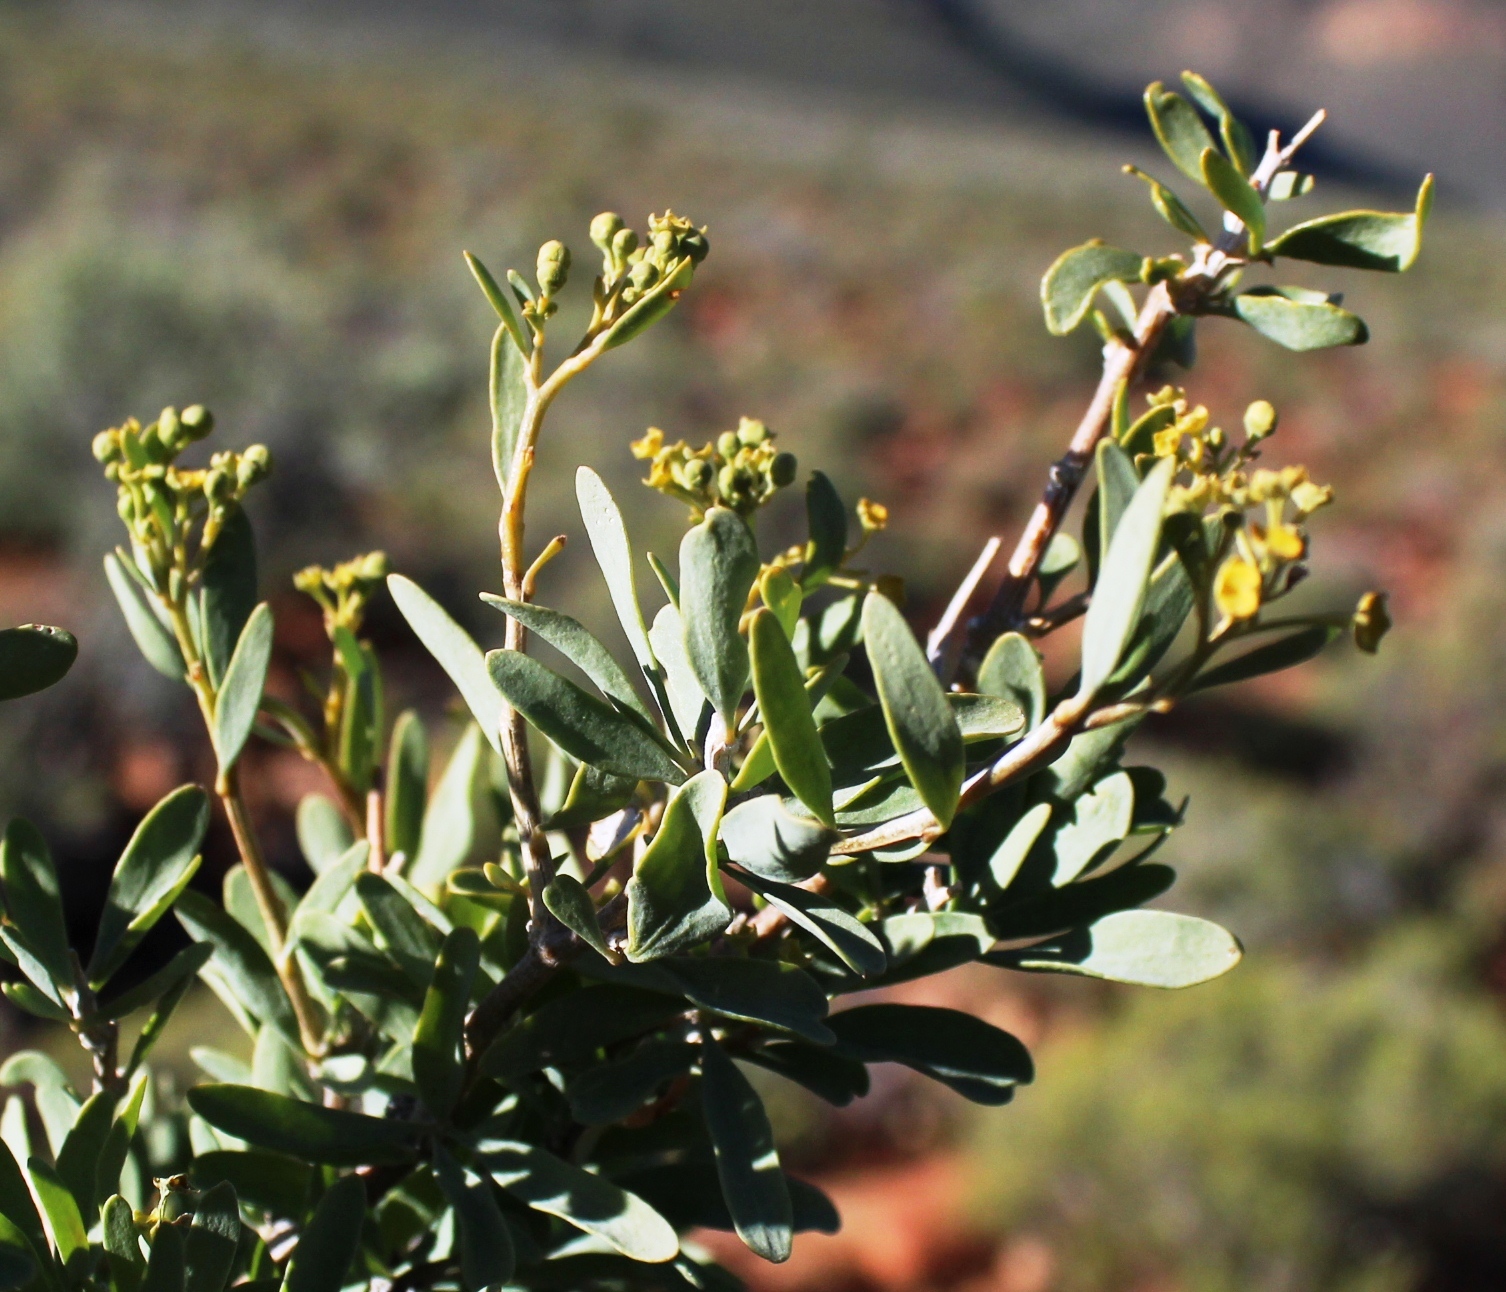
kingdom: Plantae
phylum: Tracheophyta
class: Magnoliopsida
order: Solanales
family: Montiniaceae
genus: Montinia
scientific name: Montinia caryophyllacea
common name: Wild clove-bush
